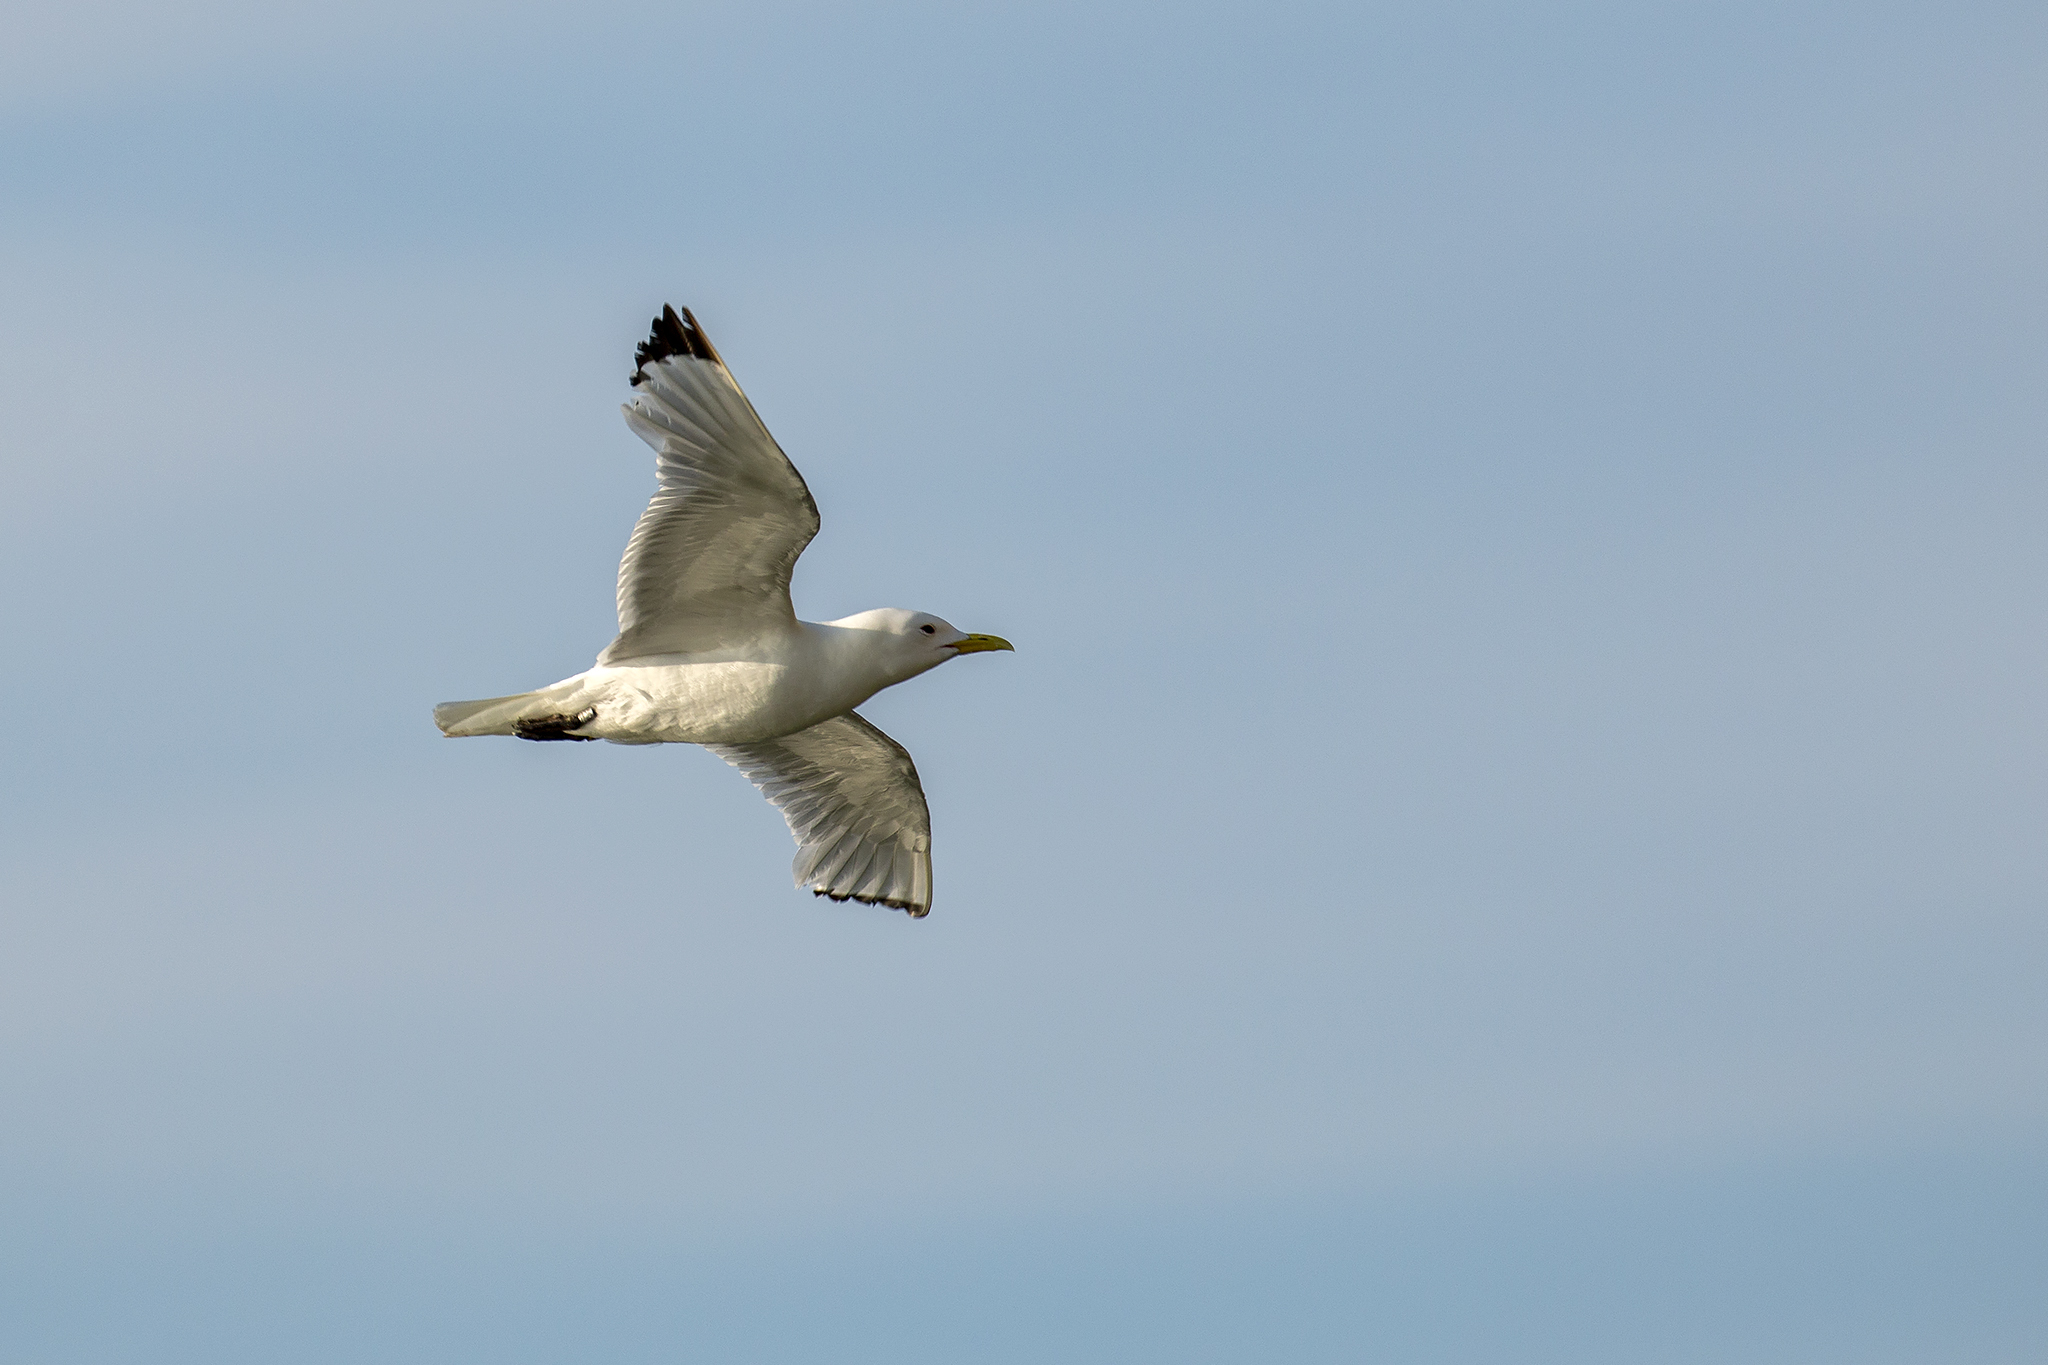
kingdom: Animalia
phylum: Chordata
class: Aves
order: Charadriiformes
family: Laridae
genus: Rissa
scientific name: Rissa tridactyla
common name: Black-legged kittiwake
